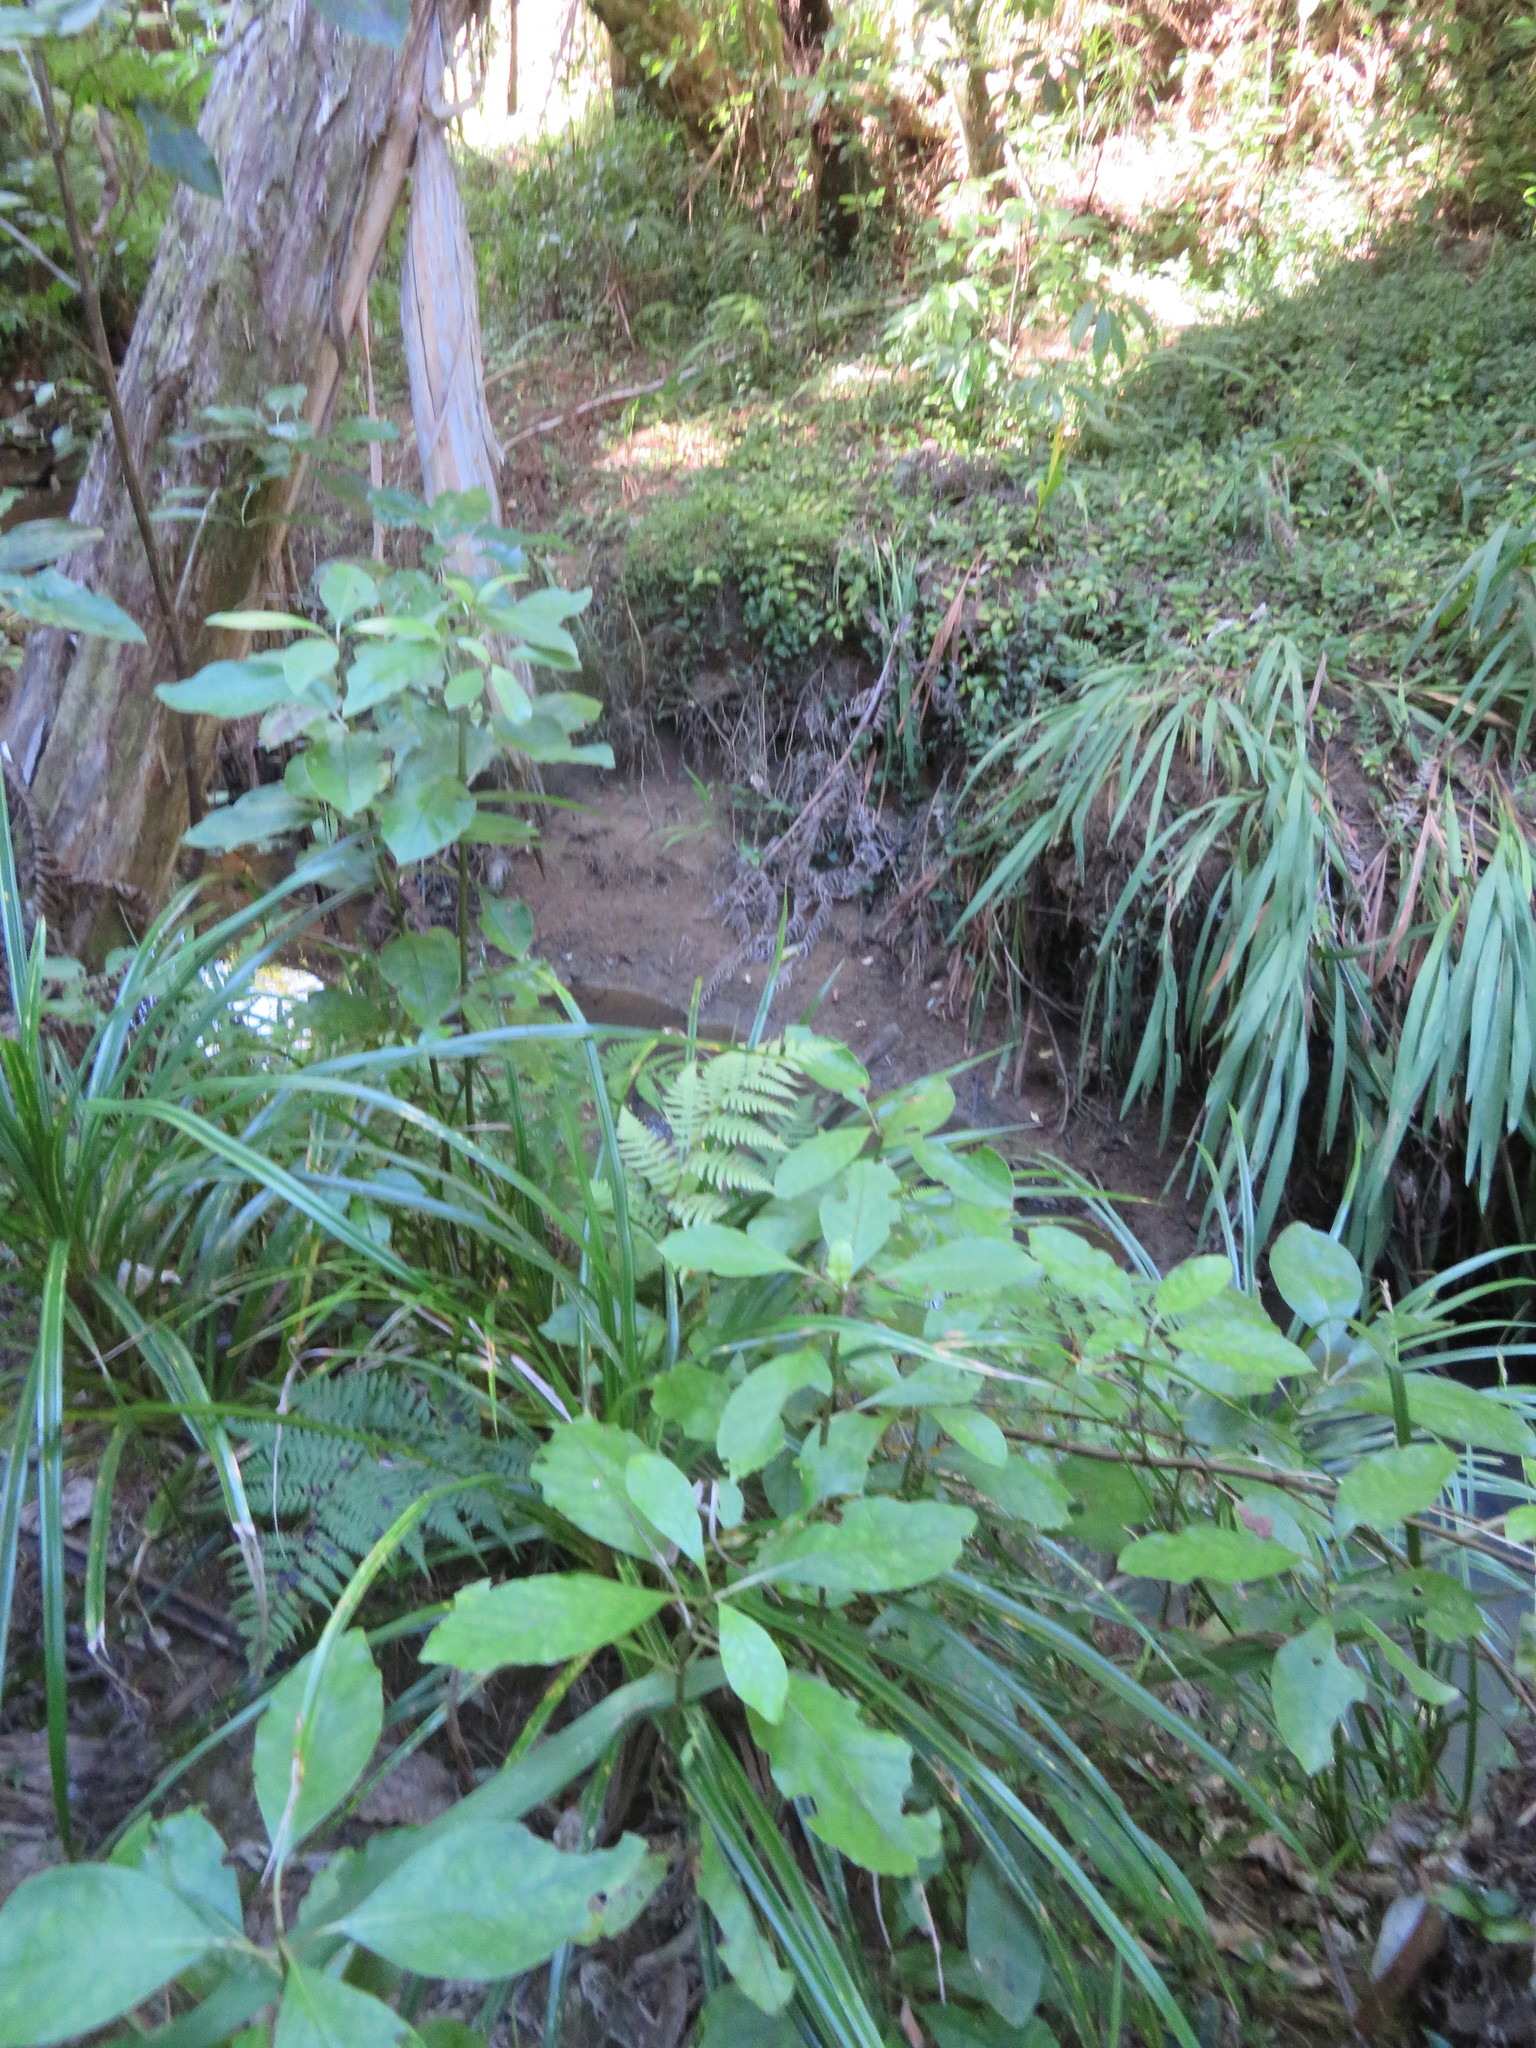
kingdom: Plantae
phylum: Tracheophyta
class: Liliopsida
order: Commelinales
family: Commelinaceae
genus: Tradescantia
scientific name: Tradescantia fluminensis
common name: Wandering-jew
